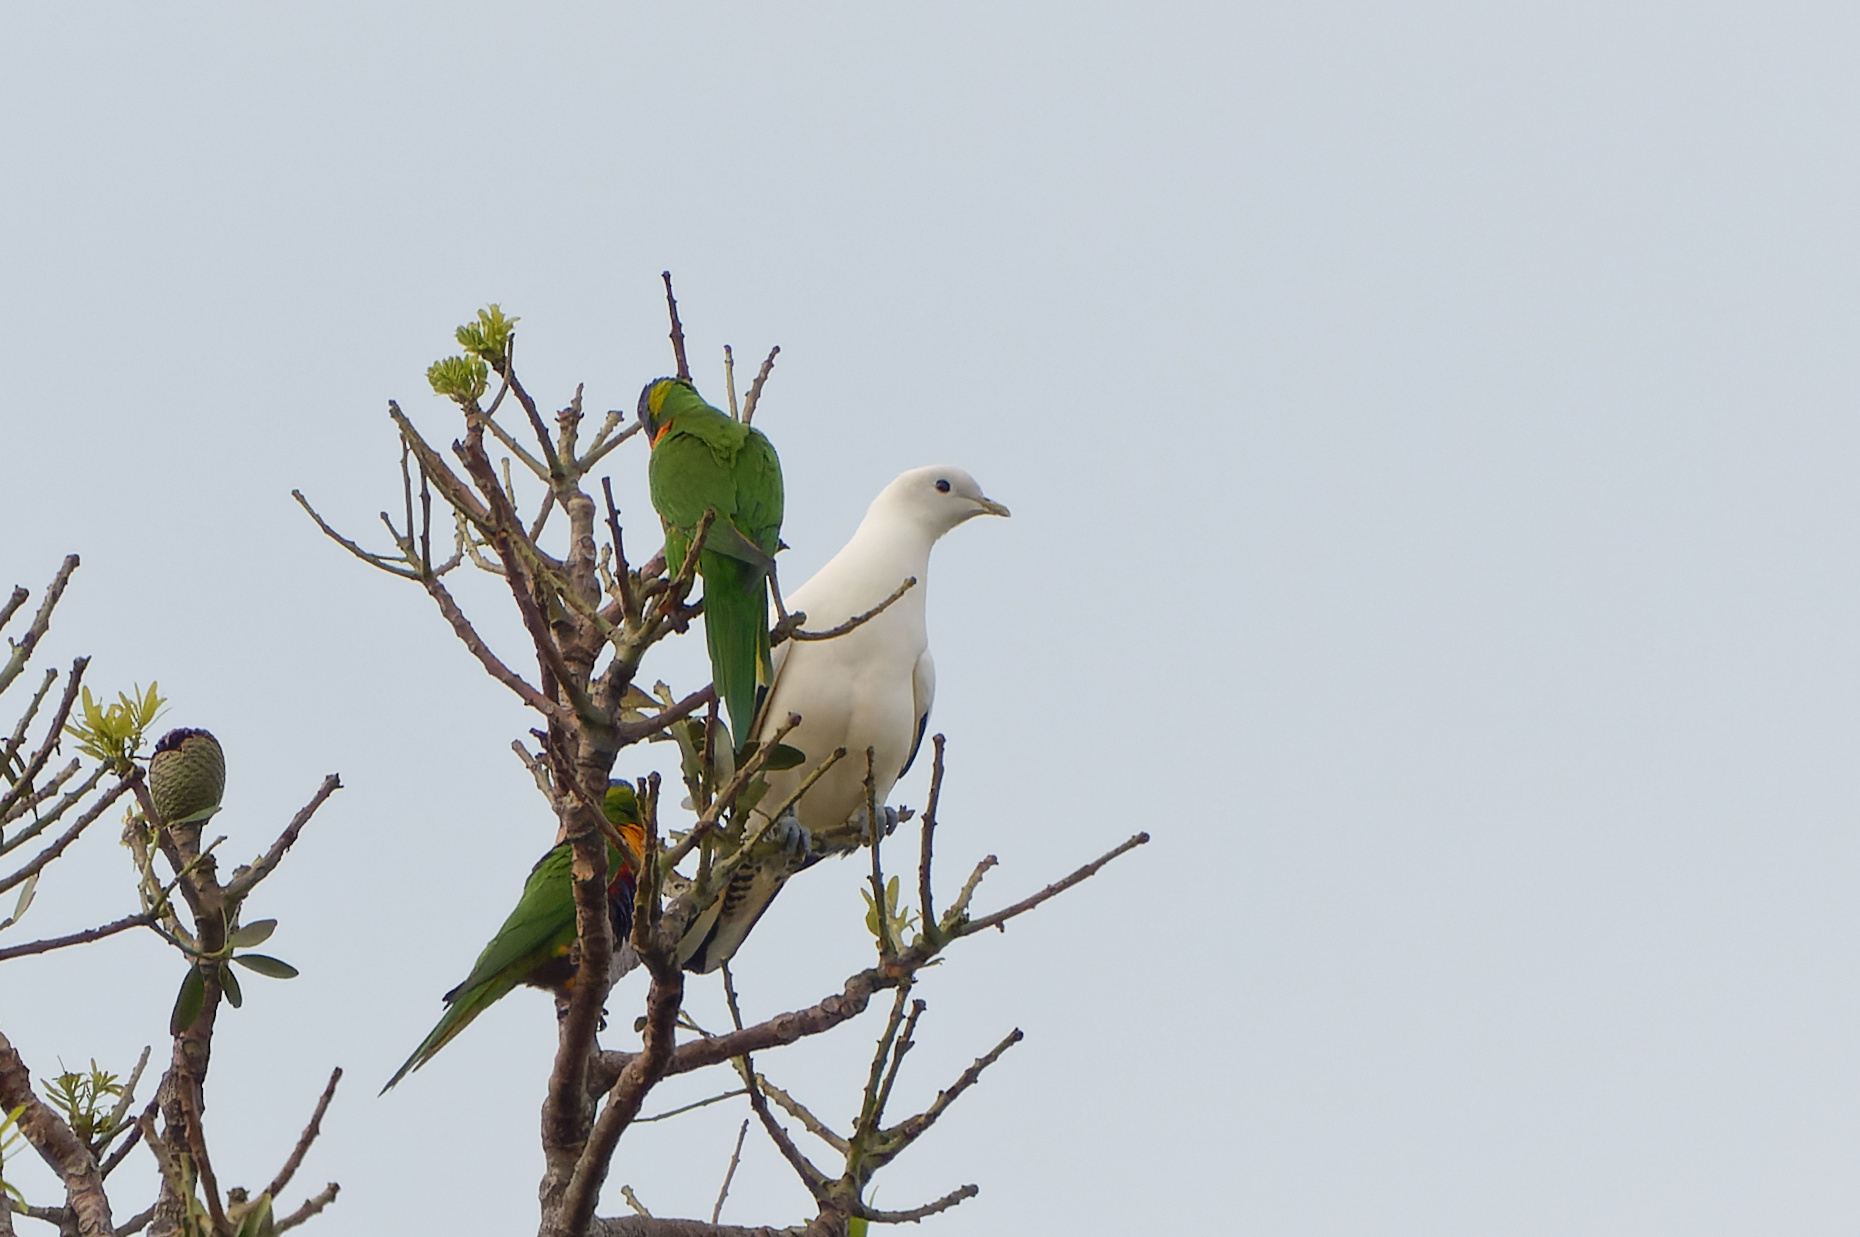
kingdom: Animalia
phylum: Chordata
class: Aves
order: Columbiformes
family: Columbidae
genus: Ducula
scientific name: Ducula spilorrhoa
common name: Torresian imperial pigeon
